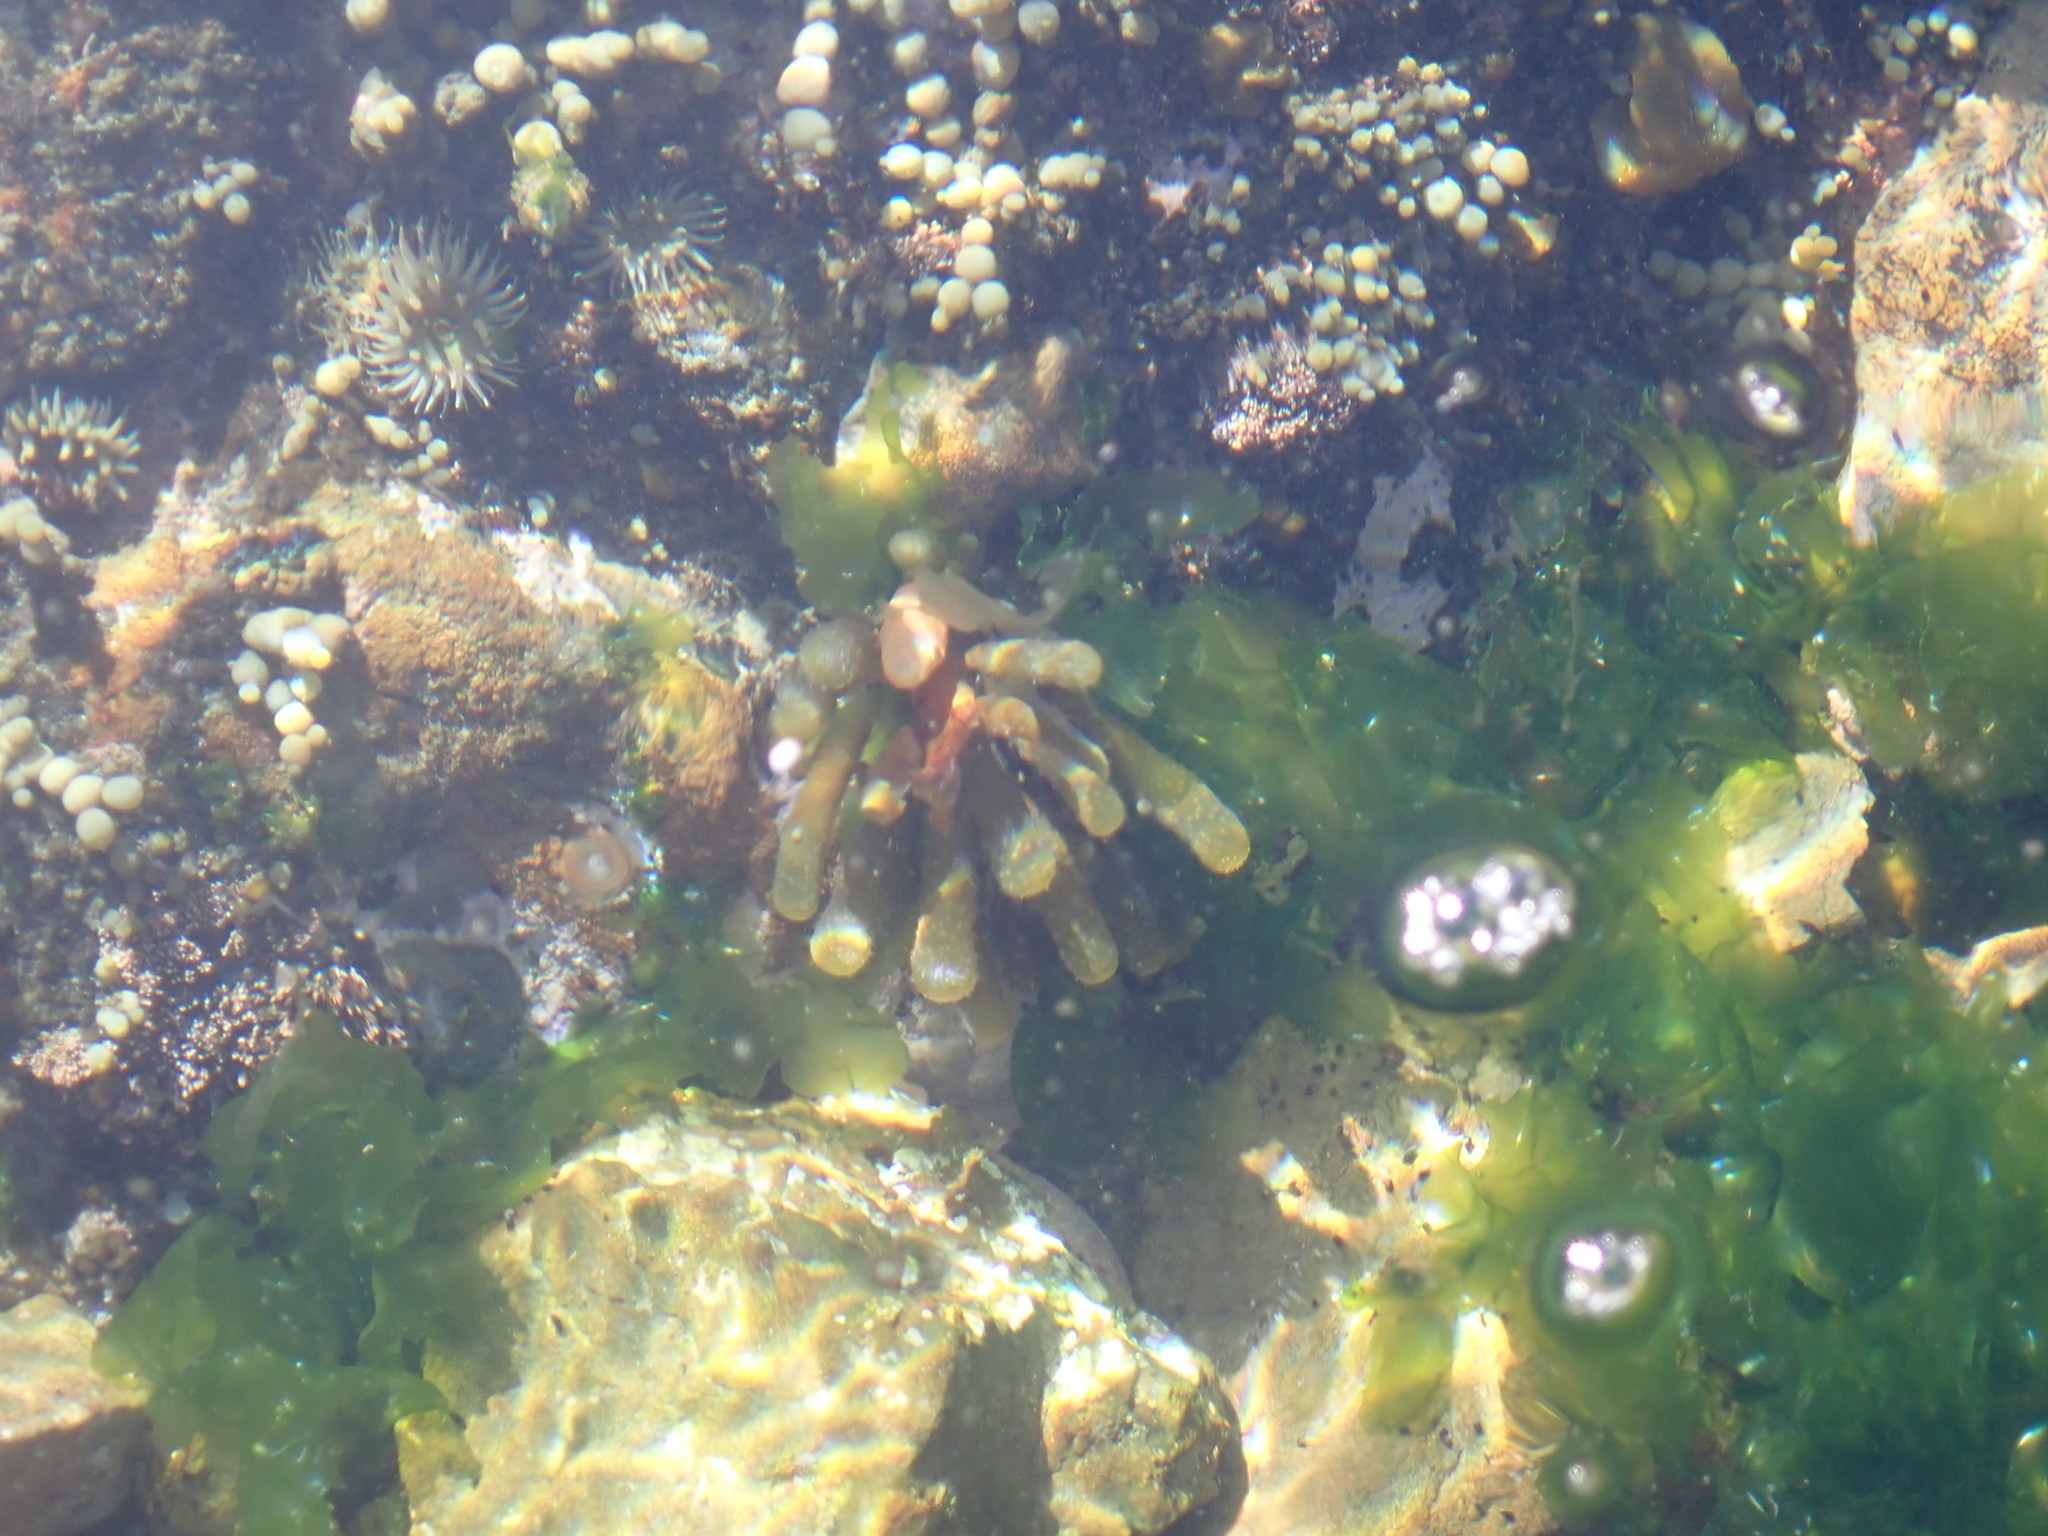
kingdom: Chromista
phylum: Ochrophyta
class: Phaeophyceae
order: Scytothamnales
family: Splachnidiaceae
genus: Splachnidium
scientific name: Splachnidium rugosum
